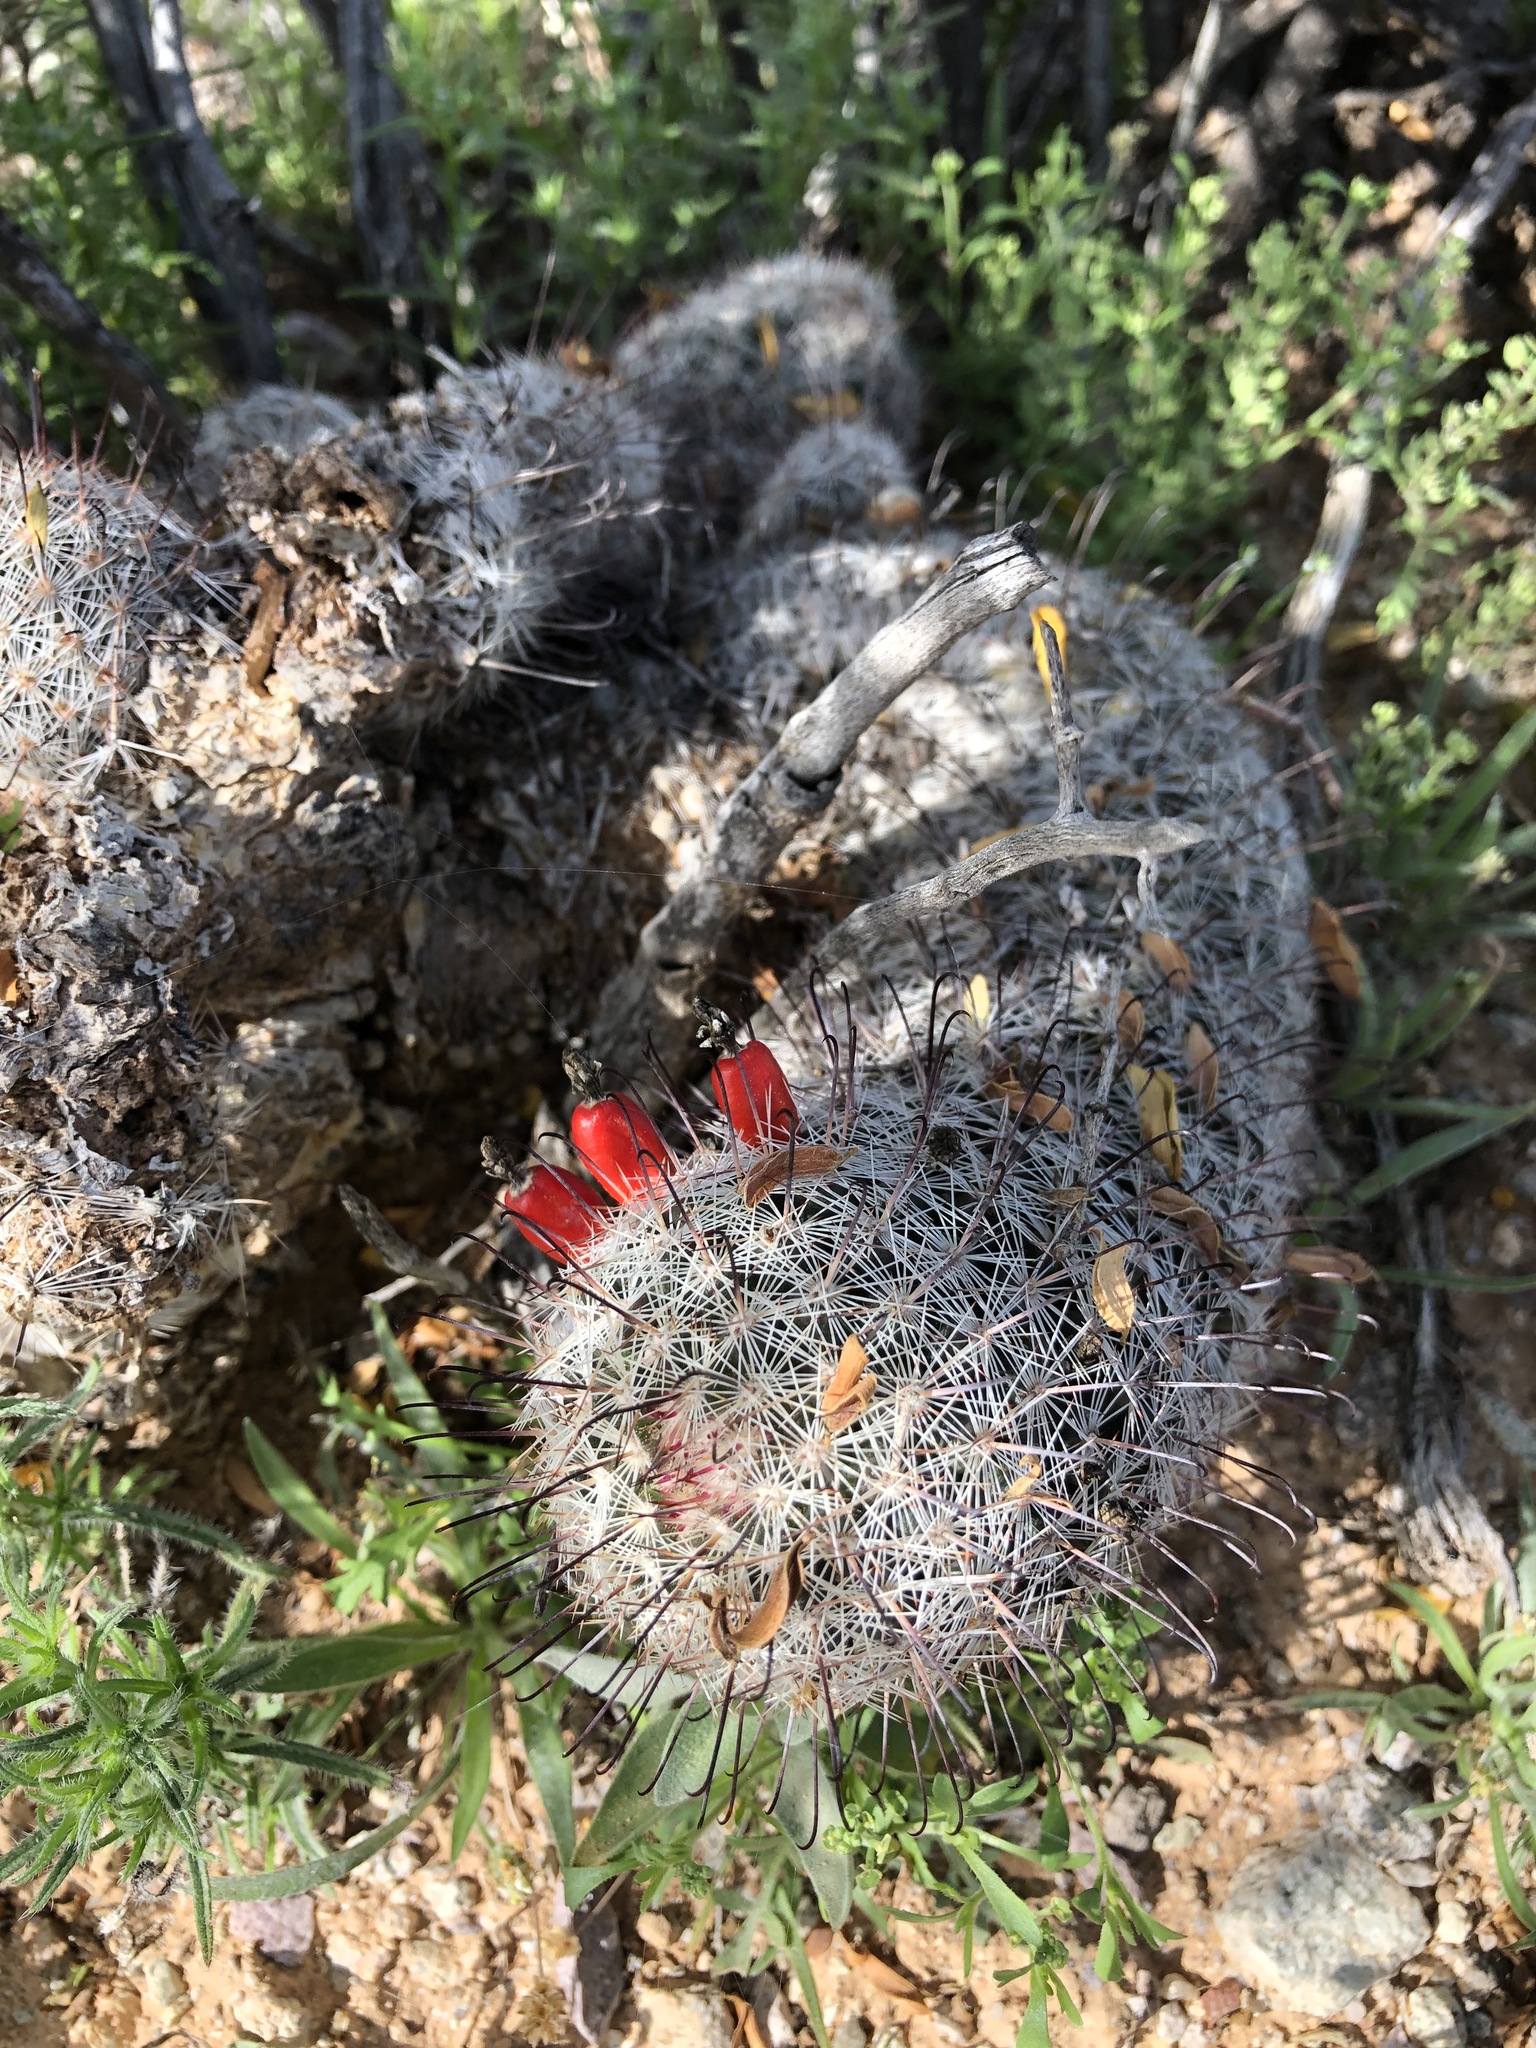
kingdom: Plantae
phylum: Tracheophyta
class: Magnoliopsida
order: Caryophyllales
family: Cactaceae
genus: Cochemiea
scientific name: Cochemiea grahamii
